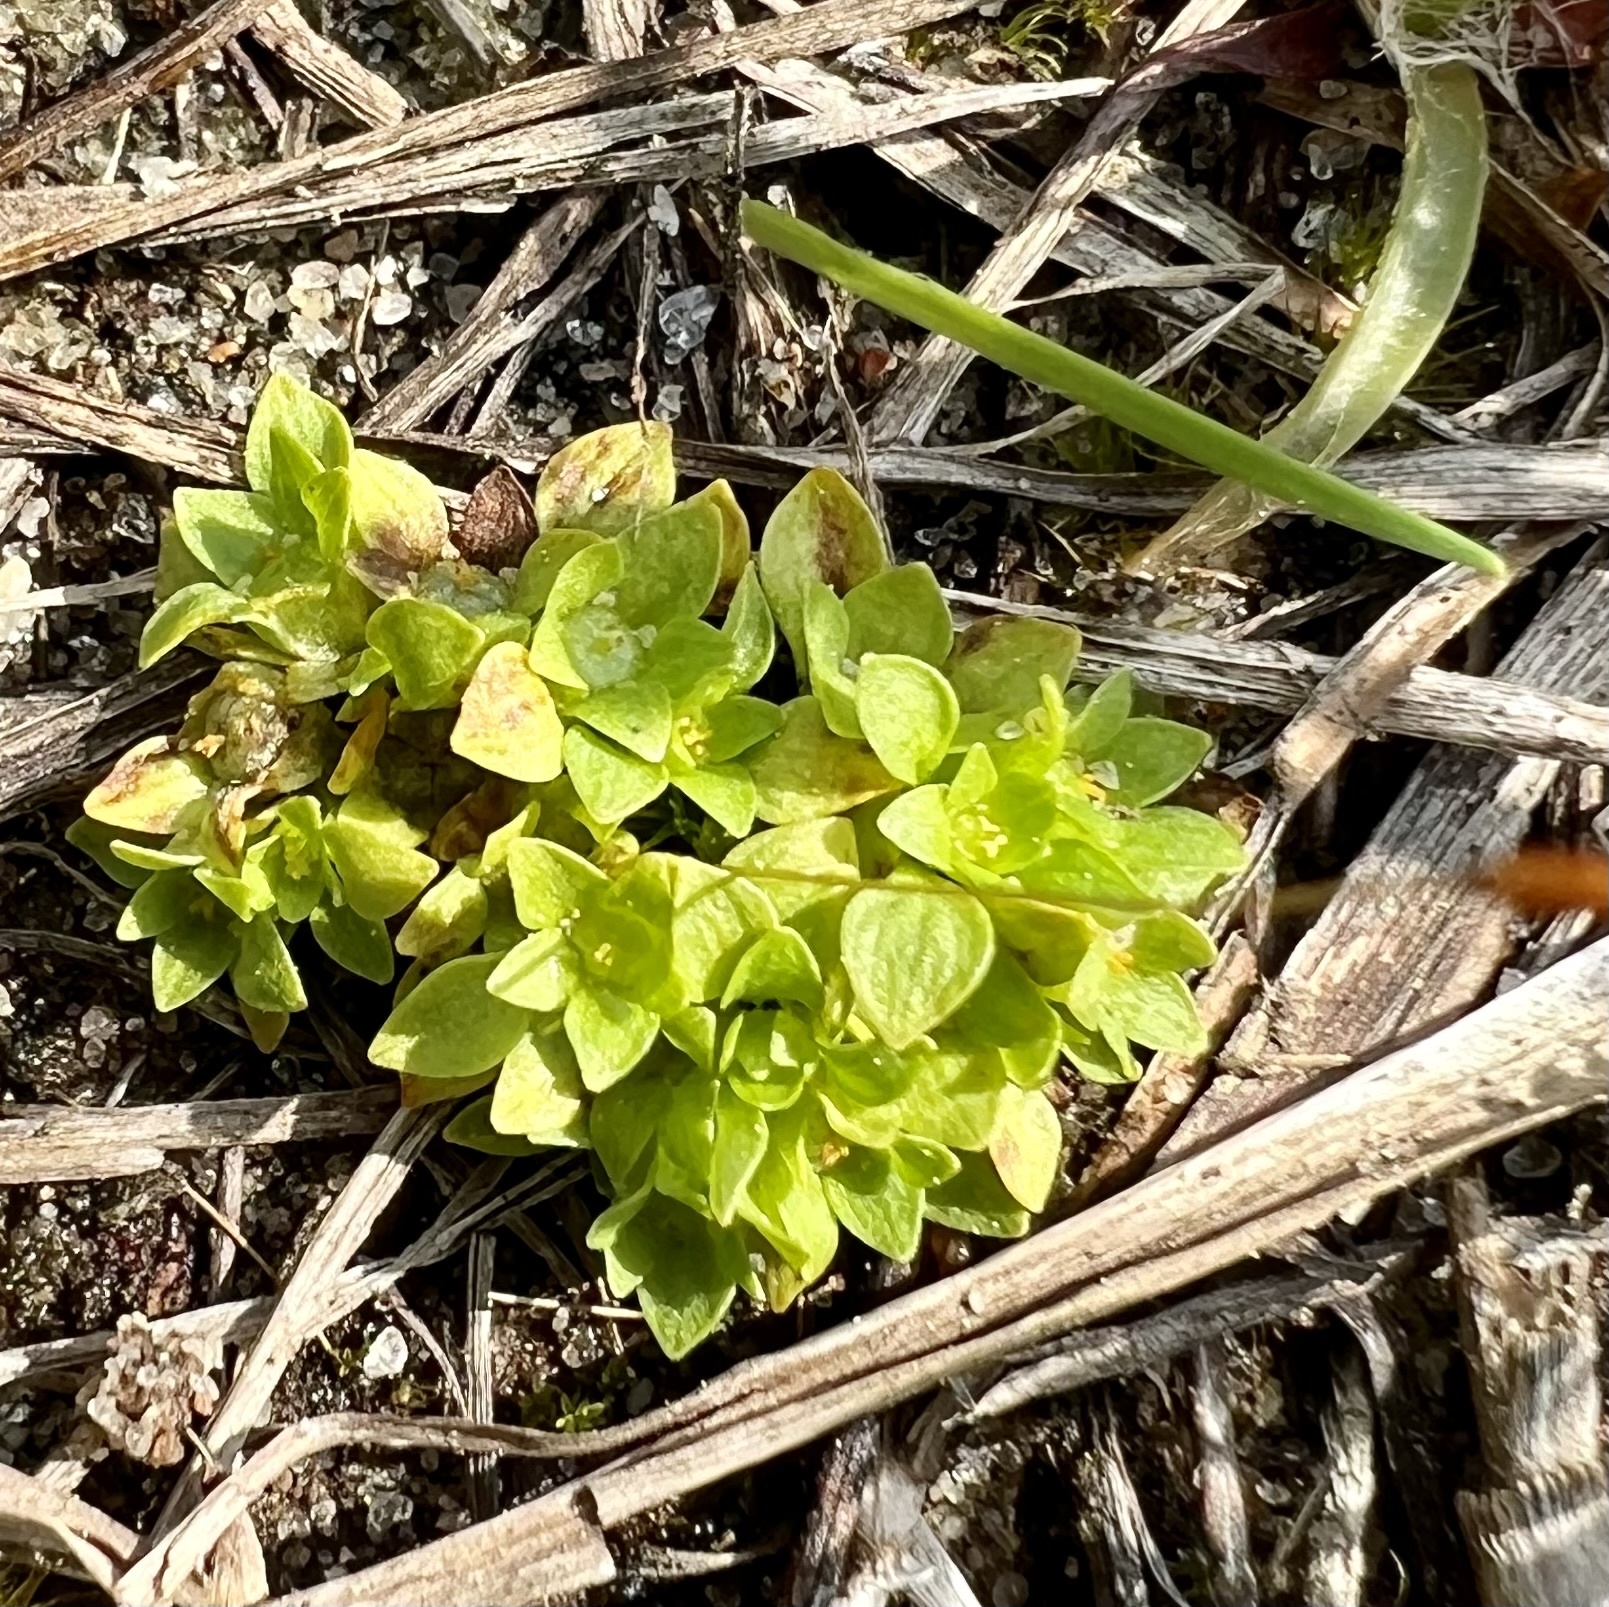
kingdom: Plantae
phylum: Tracheophyta
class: Magnoliopsida
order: Celastrales
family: Parnassiaceae
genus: Lepuropetalon
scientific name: Lepuropetalon spathulatum
